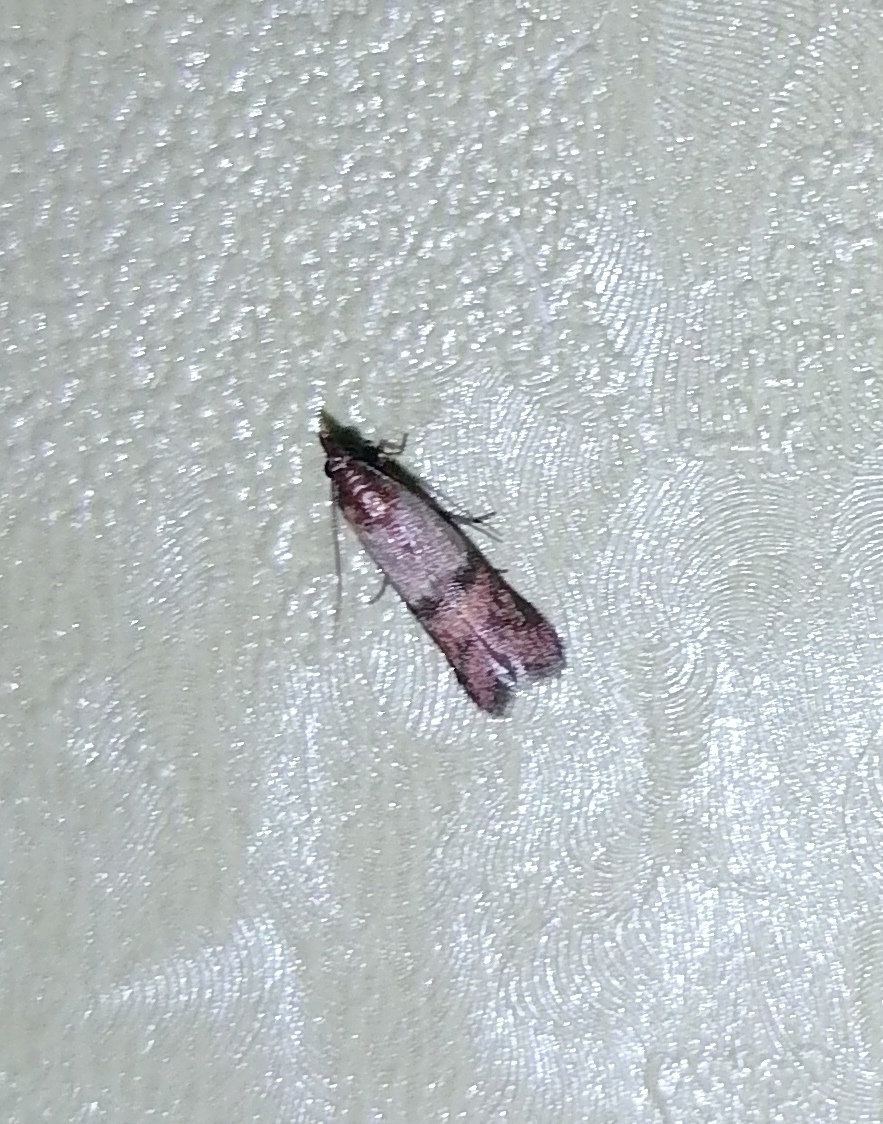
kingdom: Animalia
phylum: Arthropoda
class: Insecta
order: Lepidoptera
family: Pyralidae
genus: Plodia
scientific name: Plodia interpunctella
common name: Indian meal moth
